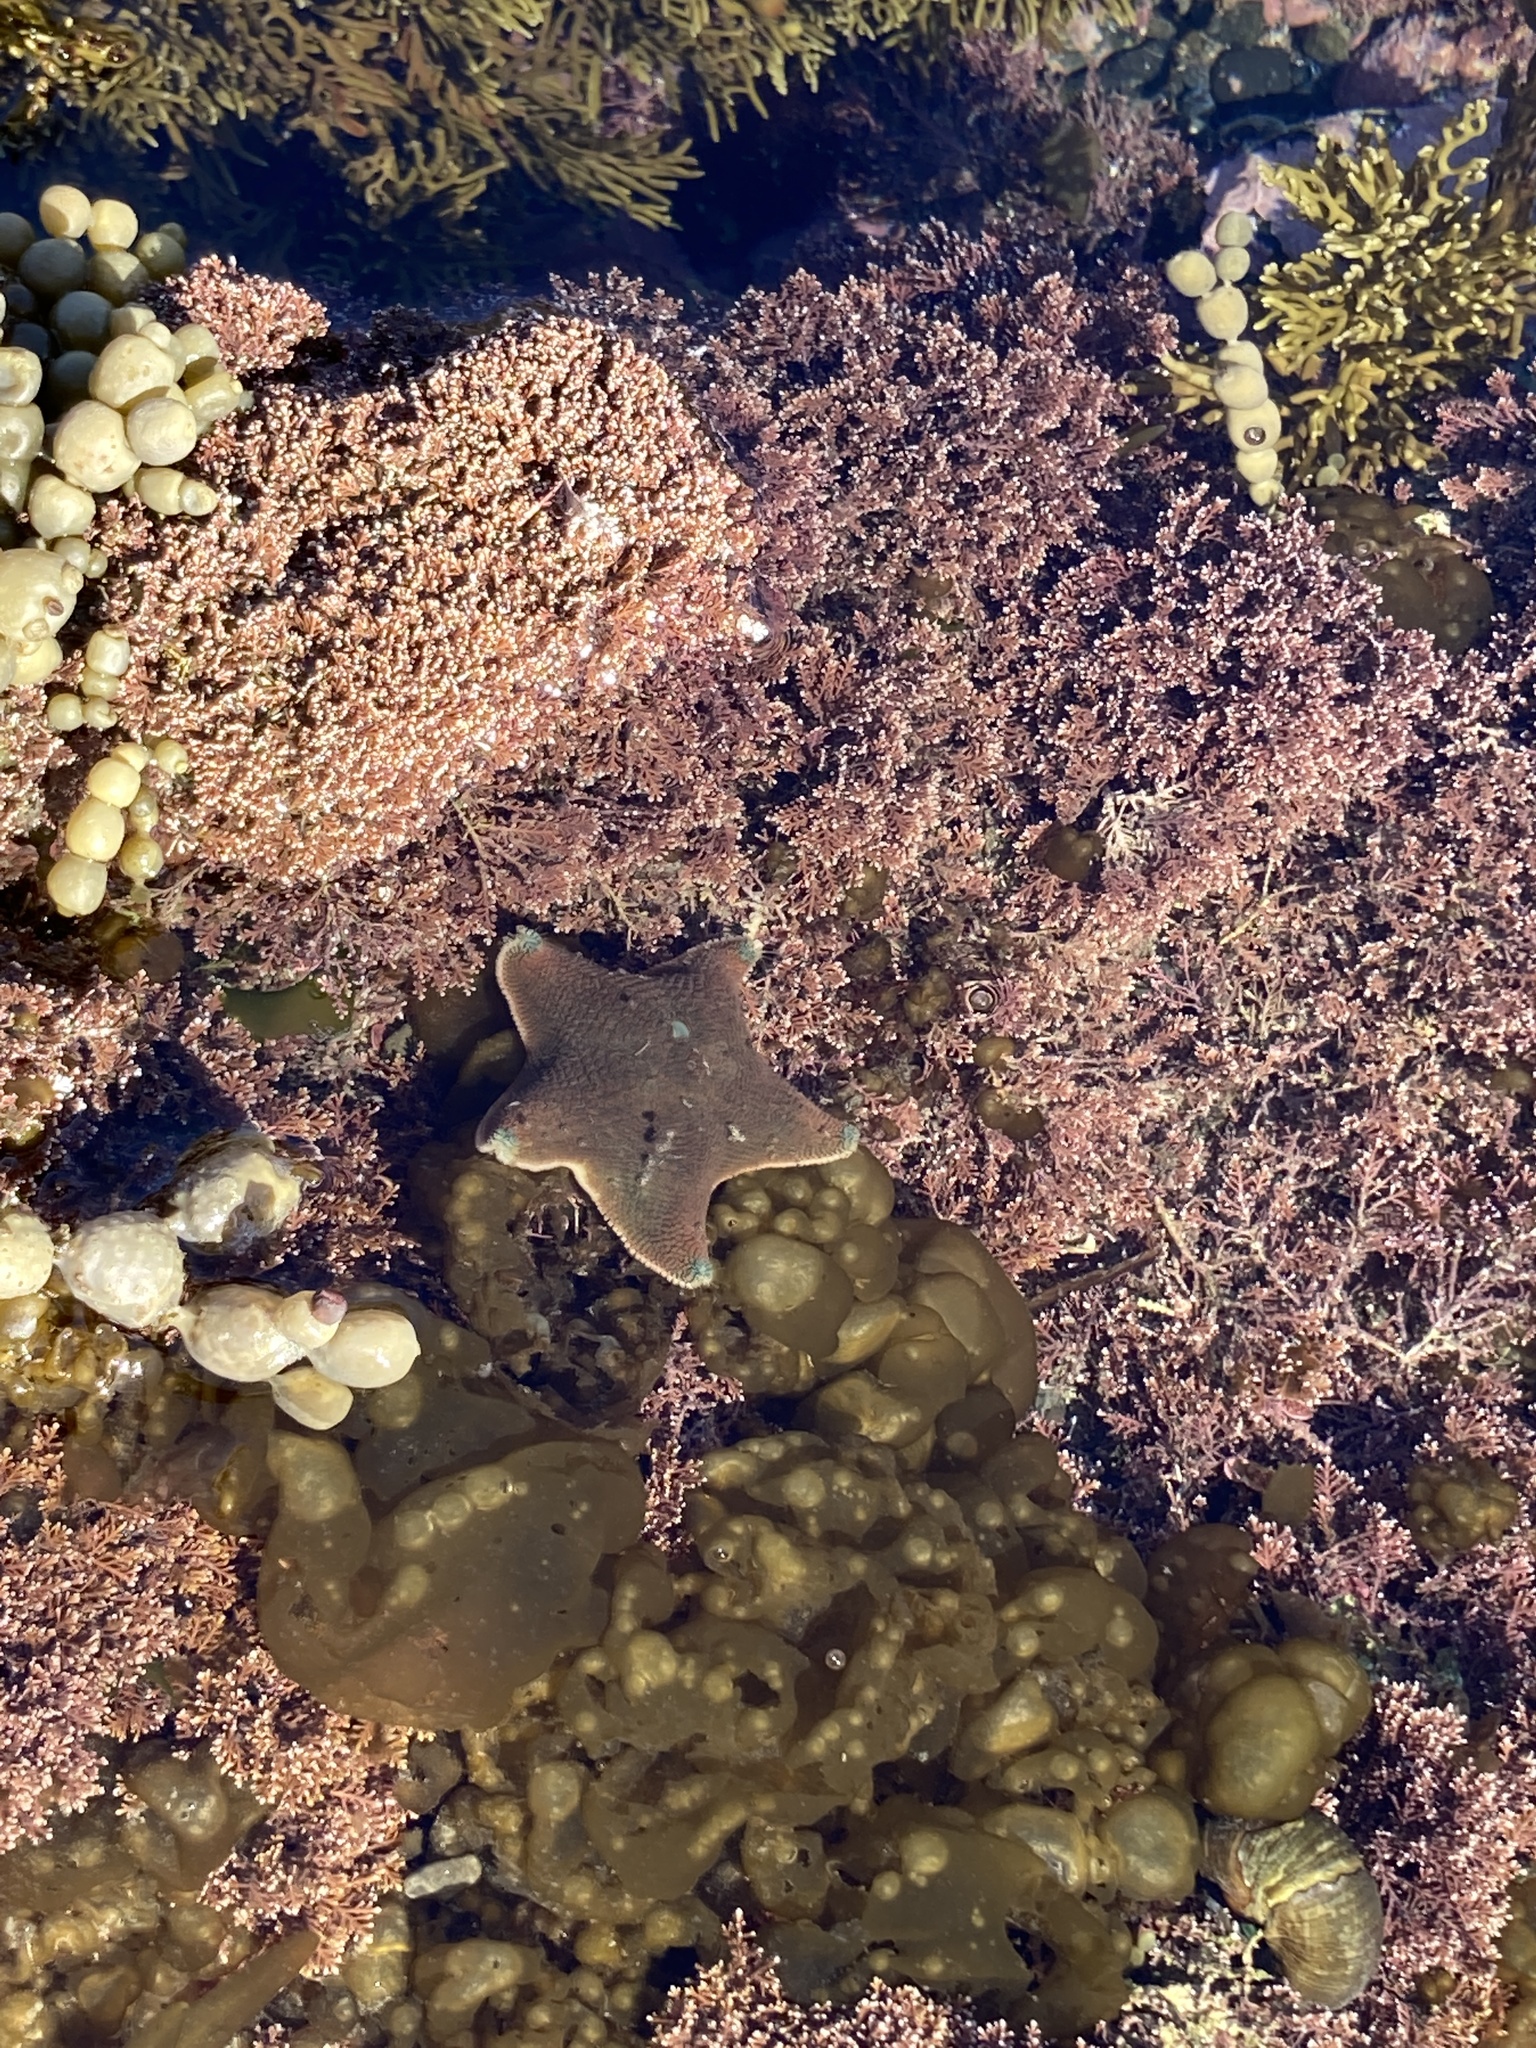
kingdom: Animalia
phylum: Echinodermata
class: Asteroidea
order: Valvatida
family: Asterinidae
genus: Patiriella
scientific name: Patiriella regularis
